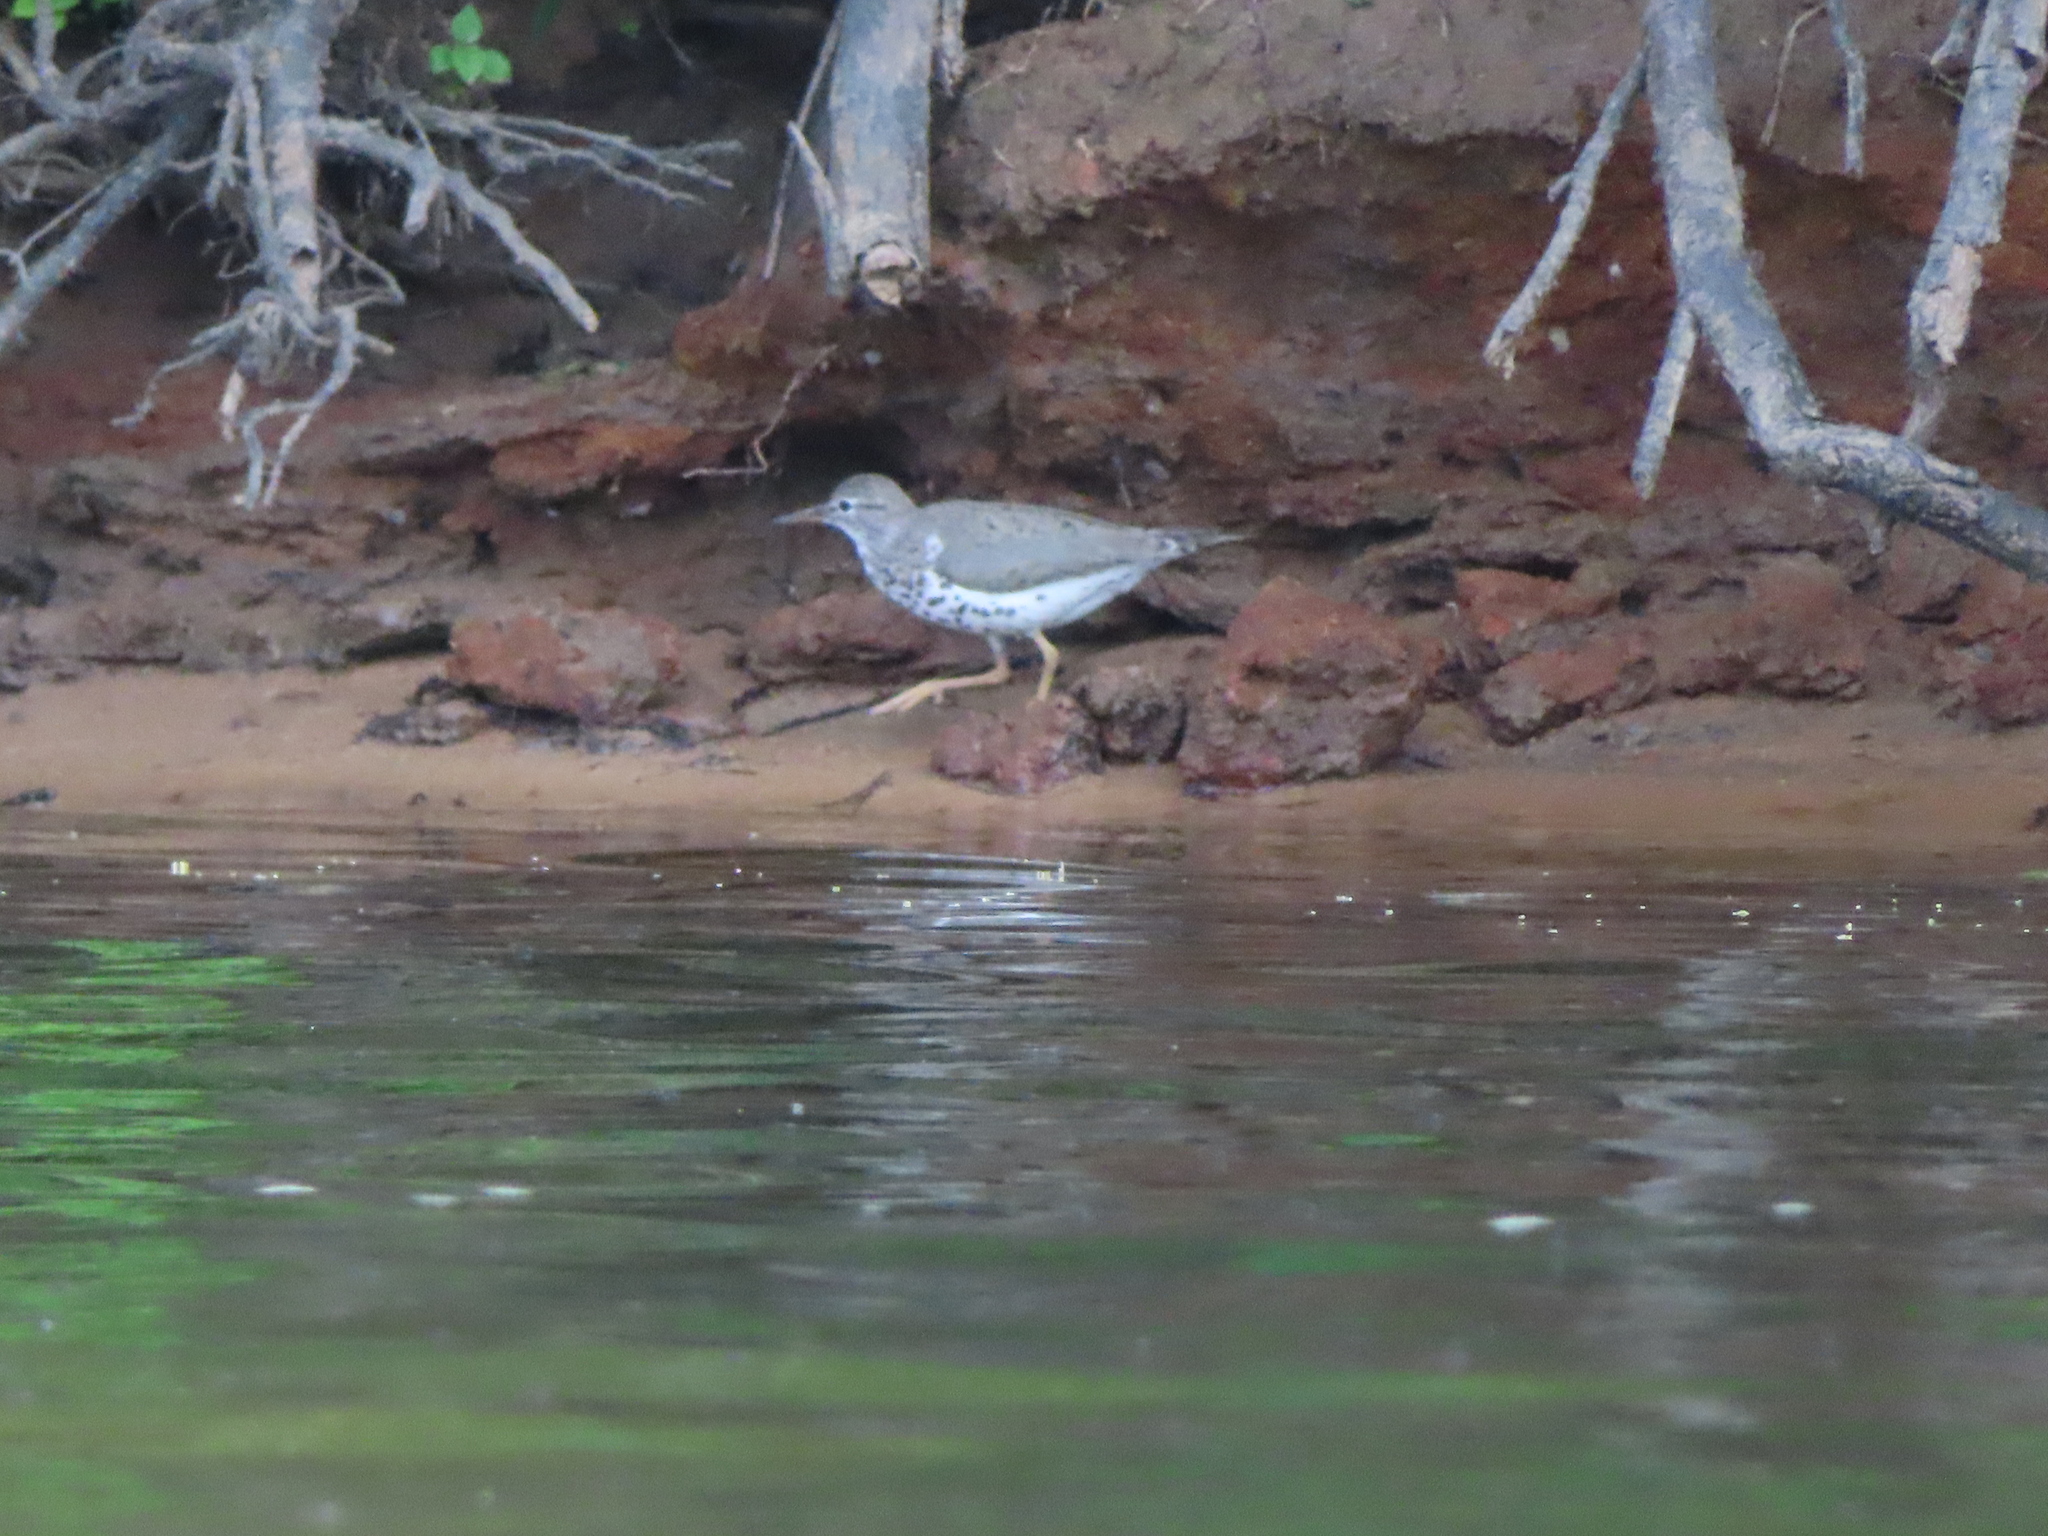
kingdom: Animalia
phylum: Chordata
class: Aves
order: Charadriiformes
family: Scolopacidae
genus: Actitis
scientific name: Actitis macularius
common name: Spotted sandpiper
